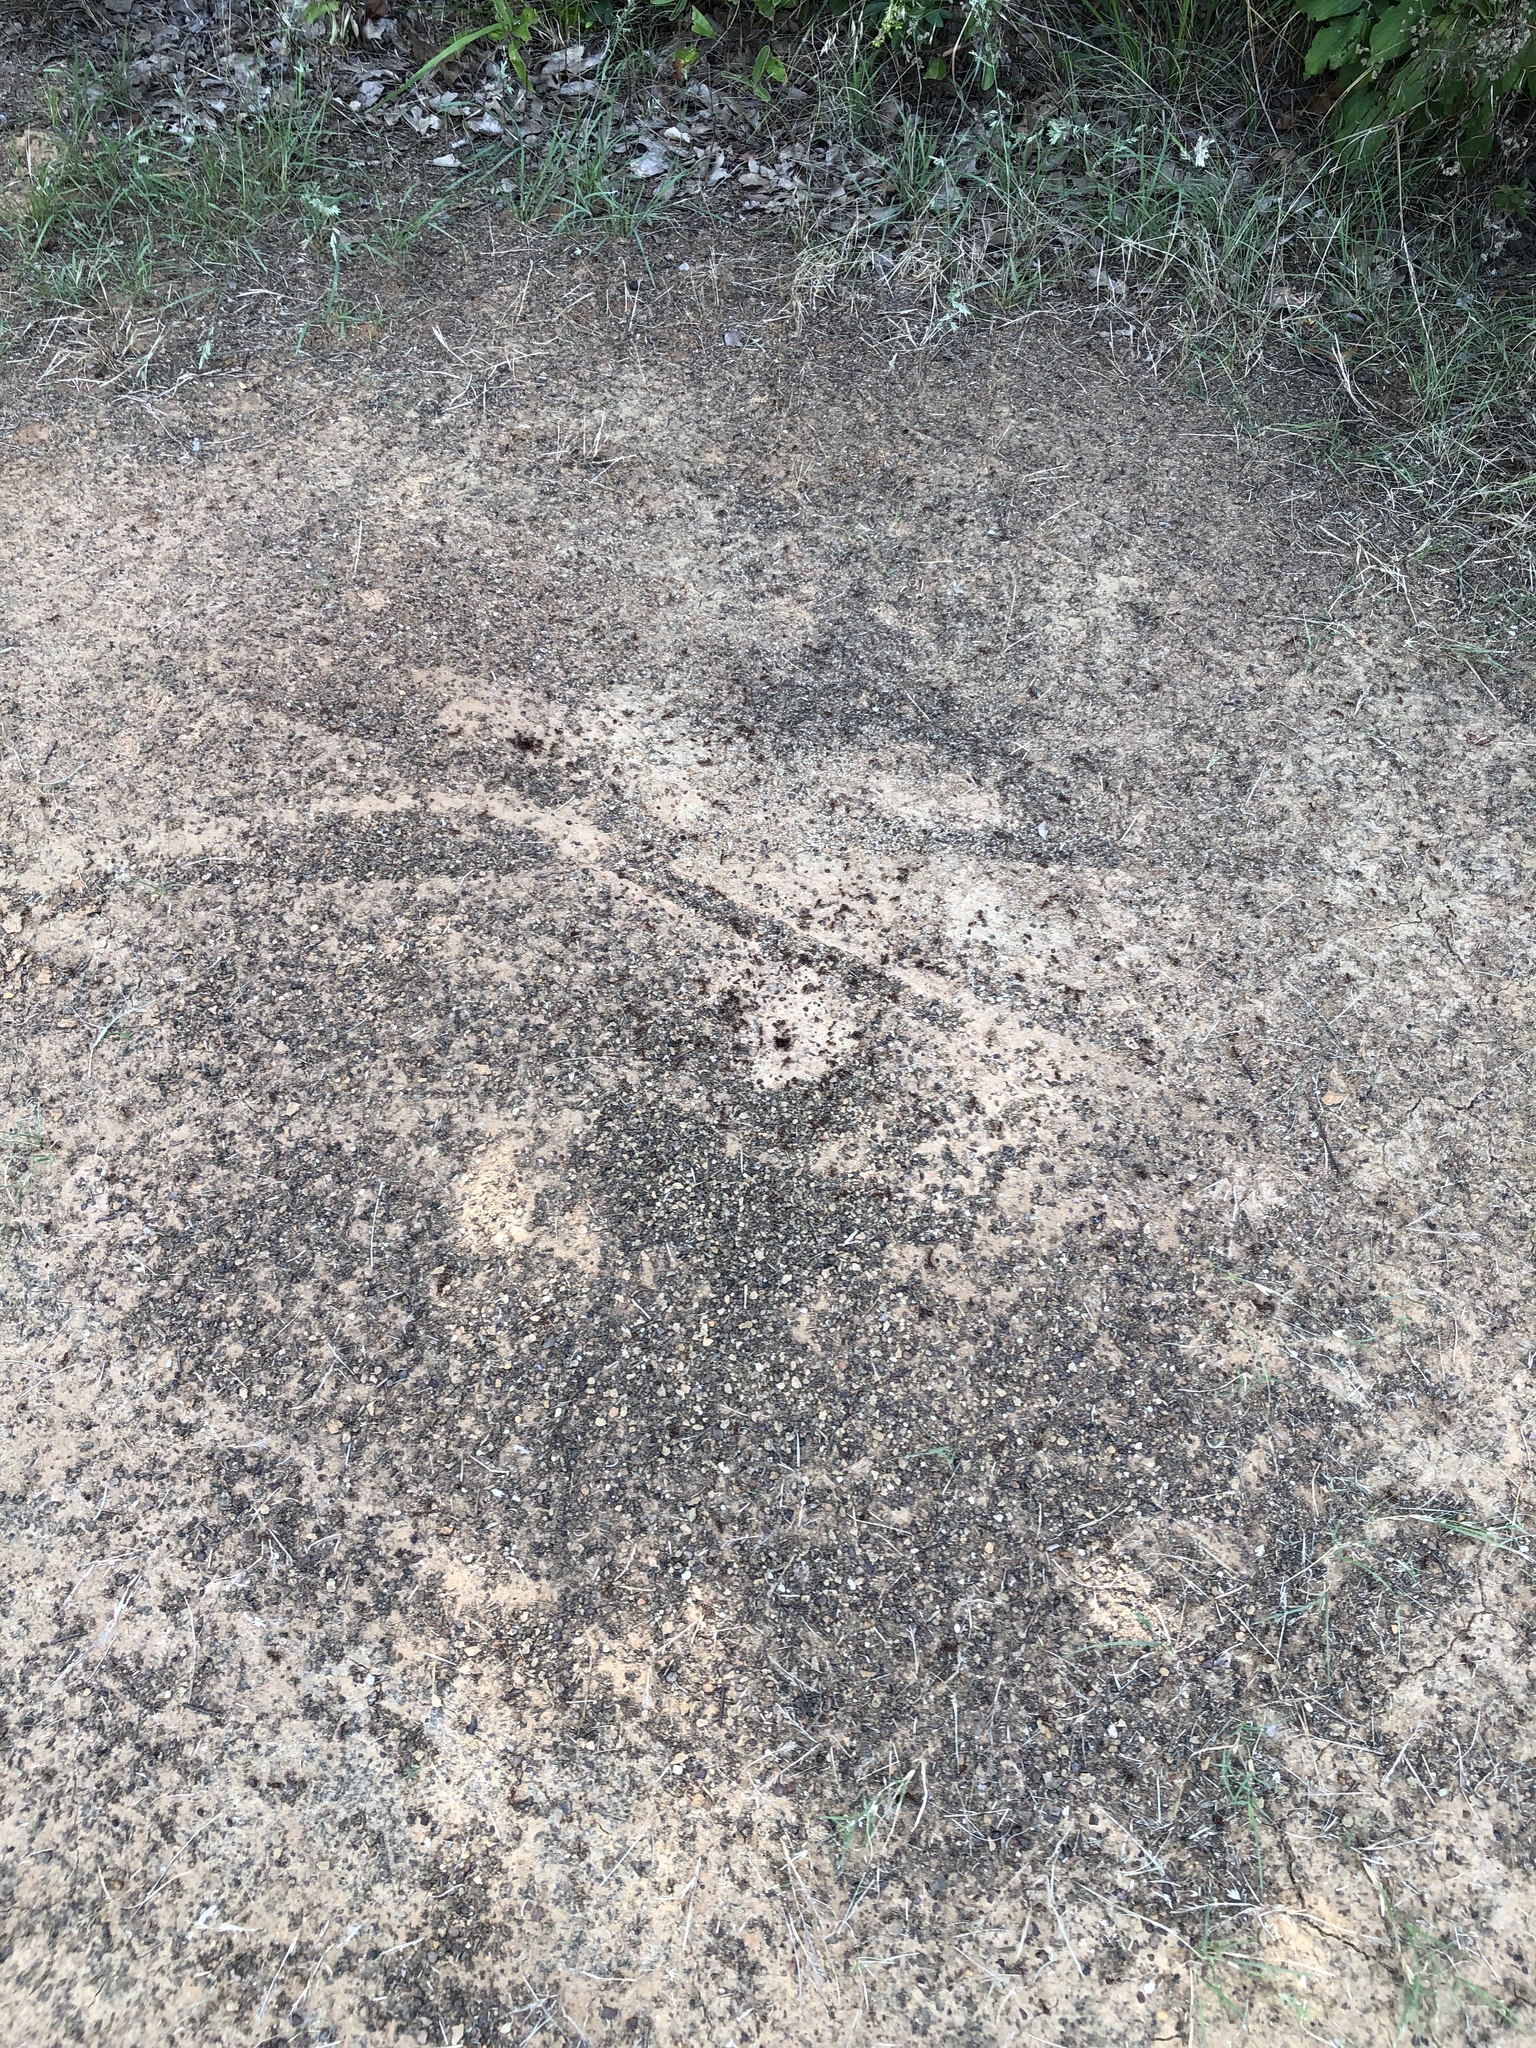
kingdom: Animalia
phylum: Arthropoda
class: Insecta
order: Hymenoptera
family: Formicidae
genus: Pogonomyrmex
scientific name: Pogonomyrmex barbatus
